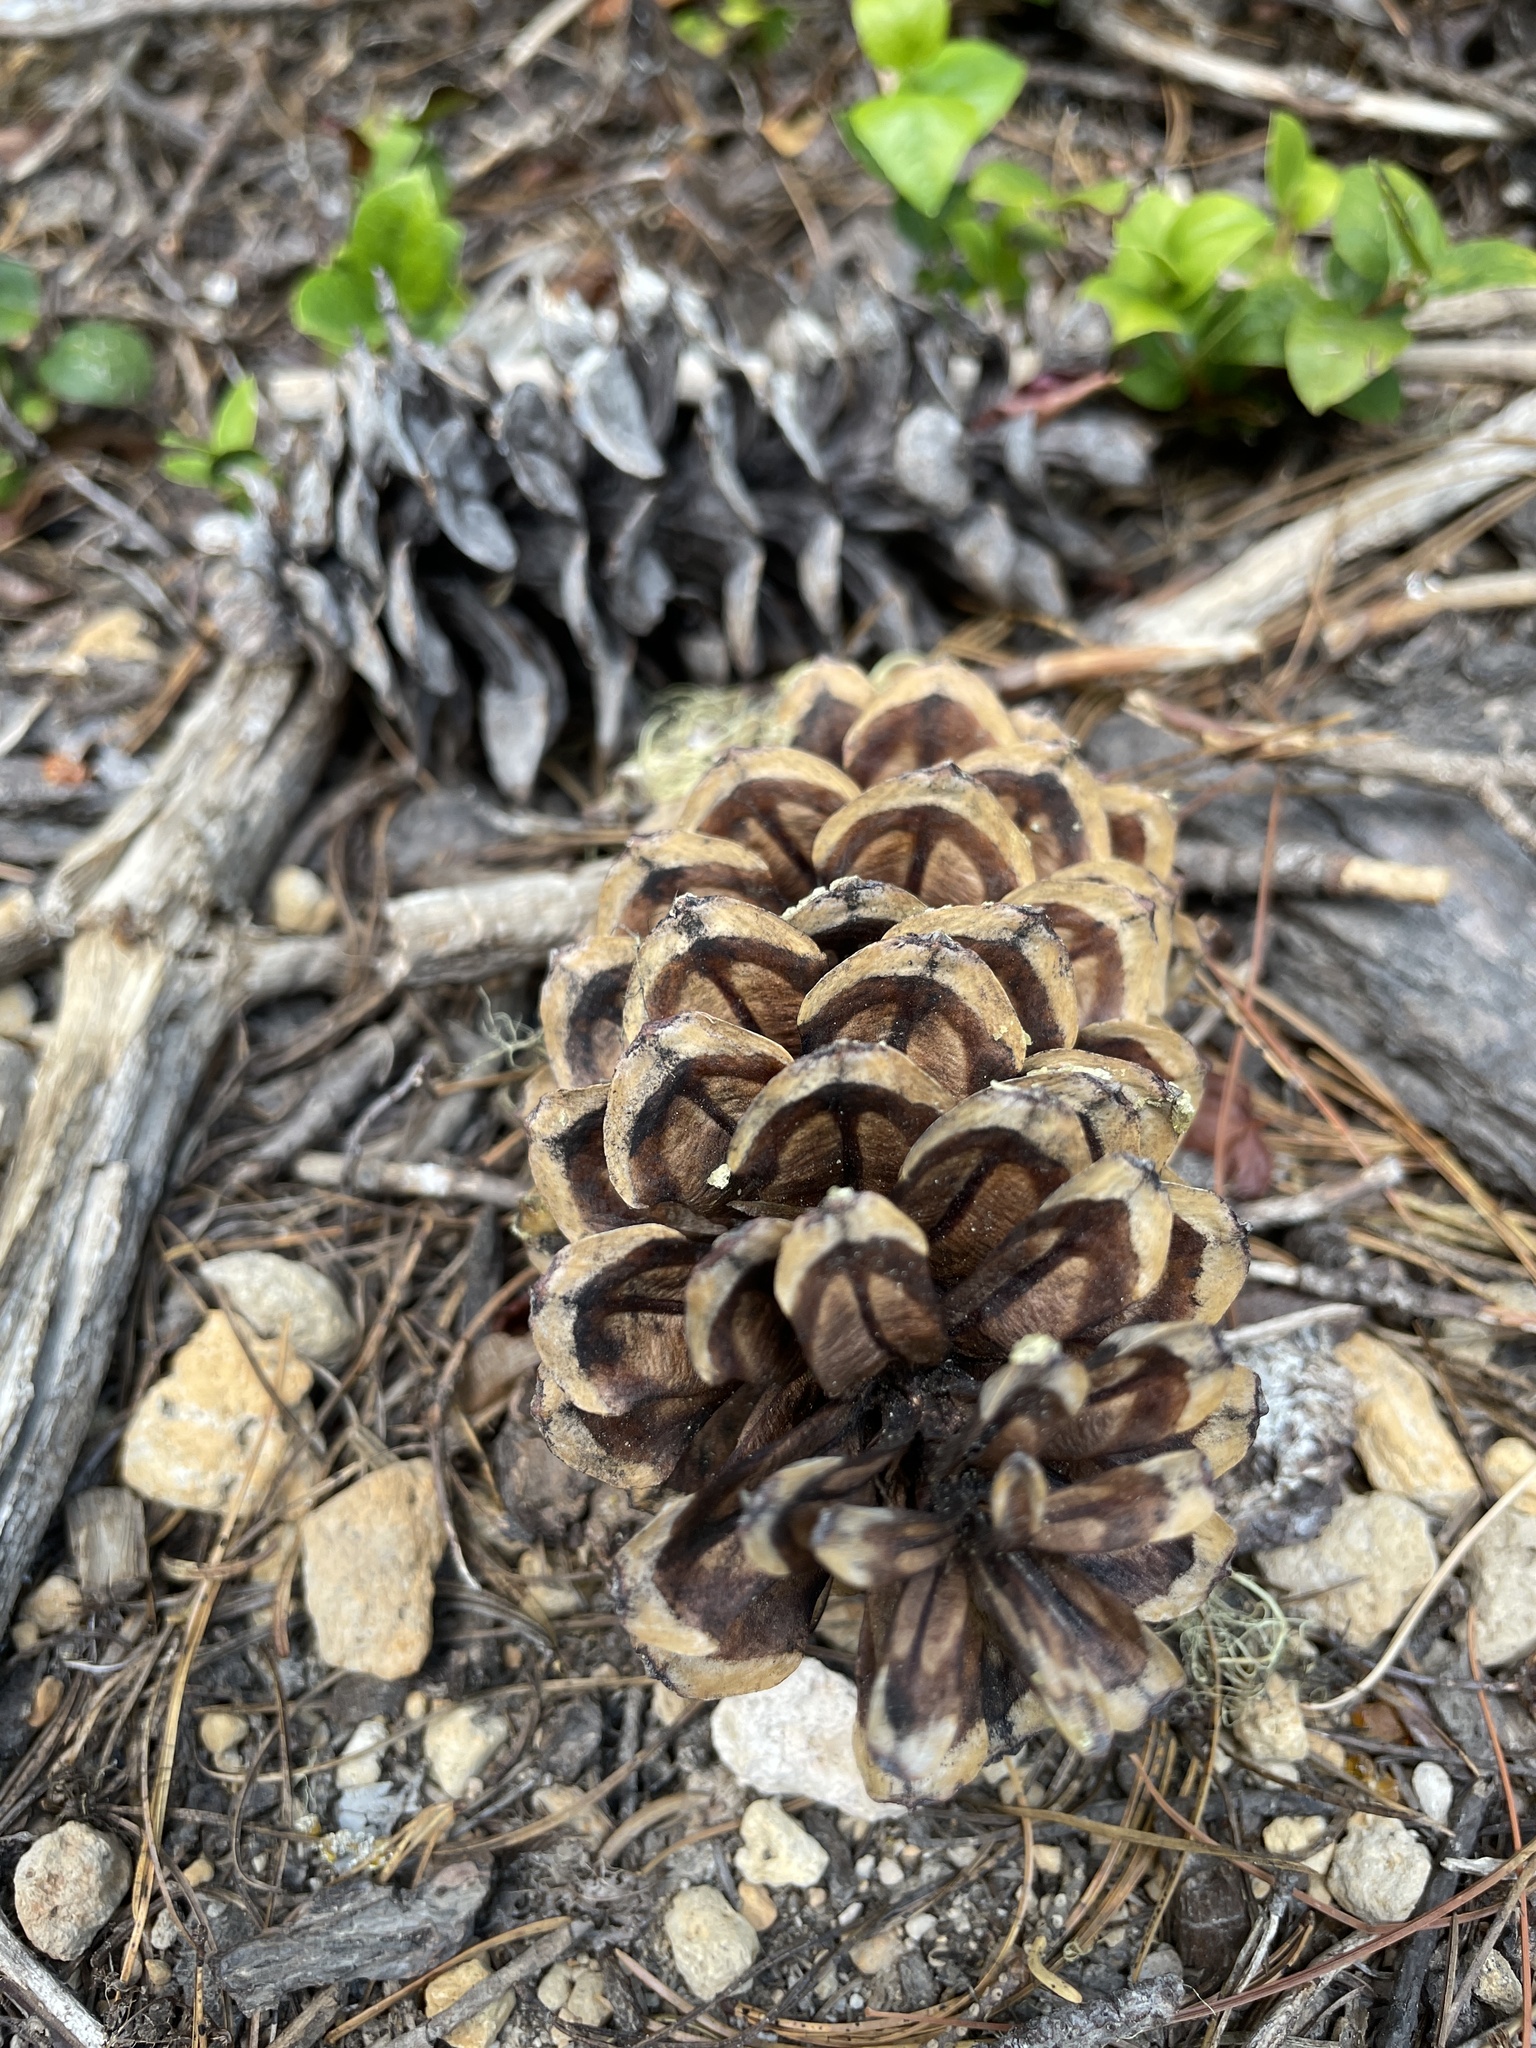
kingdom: Plantae
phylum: Tracheophyta
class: Pinopsida
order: Pinales
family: Pinaceae
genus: Pinus
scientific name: Pinus monticola
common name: Western white pine
